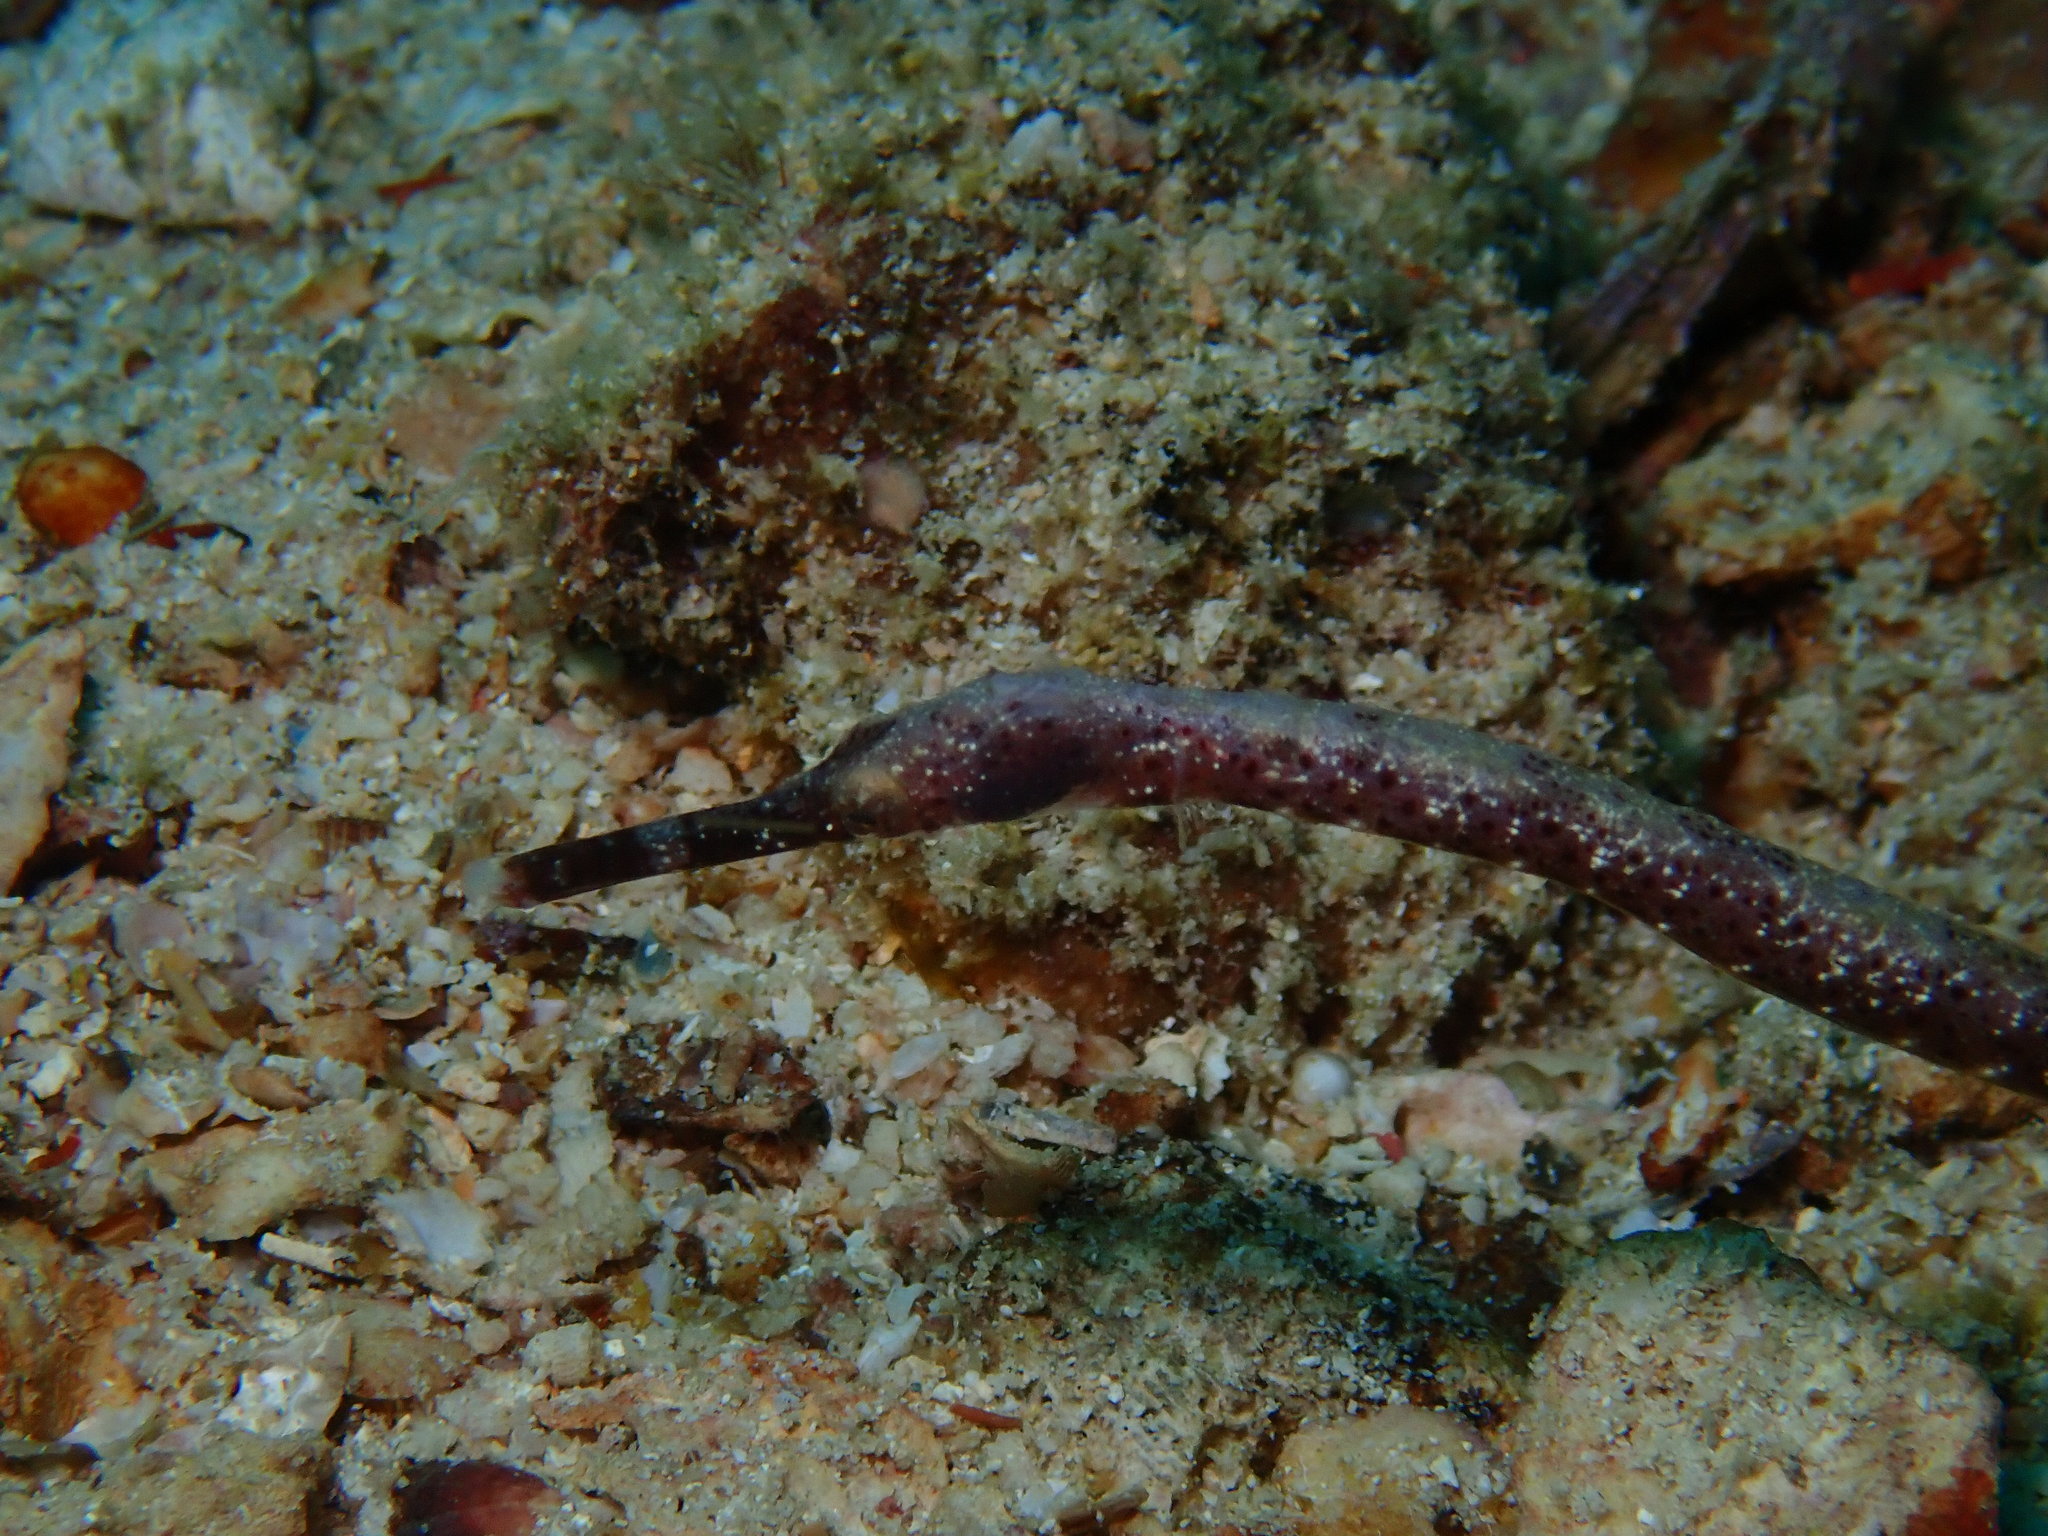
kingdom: Animalia
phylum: Chordata
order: Syngnathiformes
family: Syngnathidae
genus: Trachyrhamphus
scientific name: Trachyrhamphus bicoarctatus
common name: Double-ended pipefish
